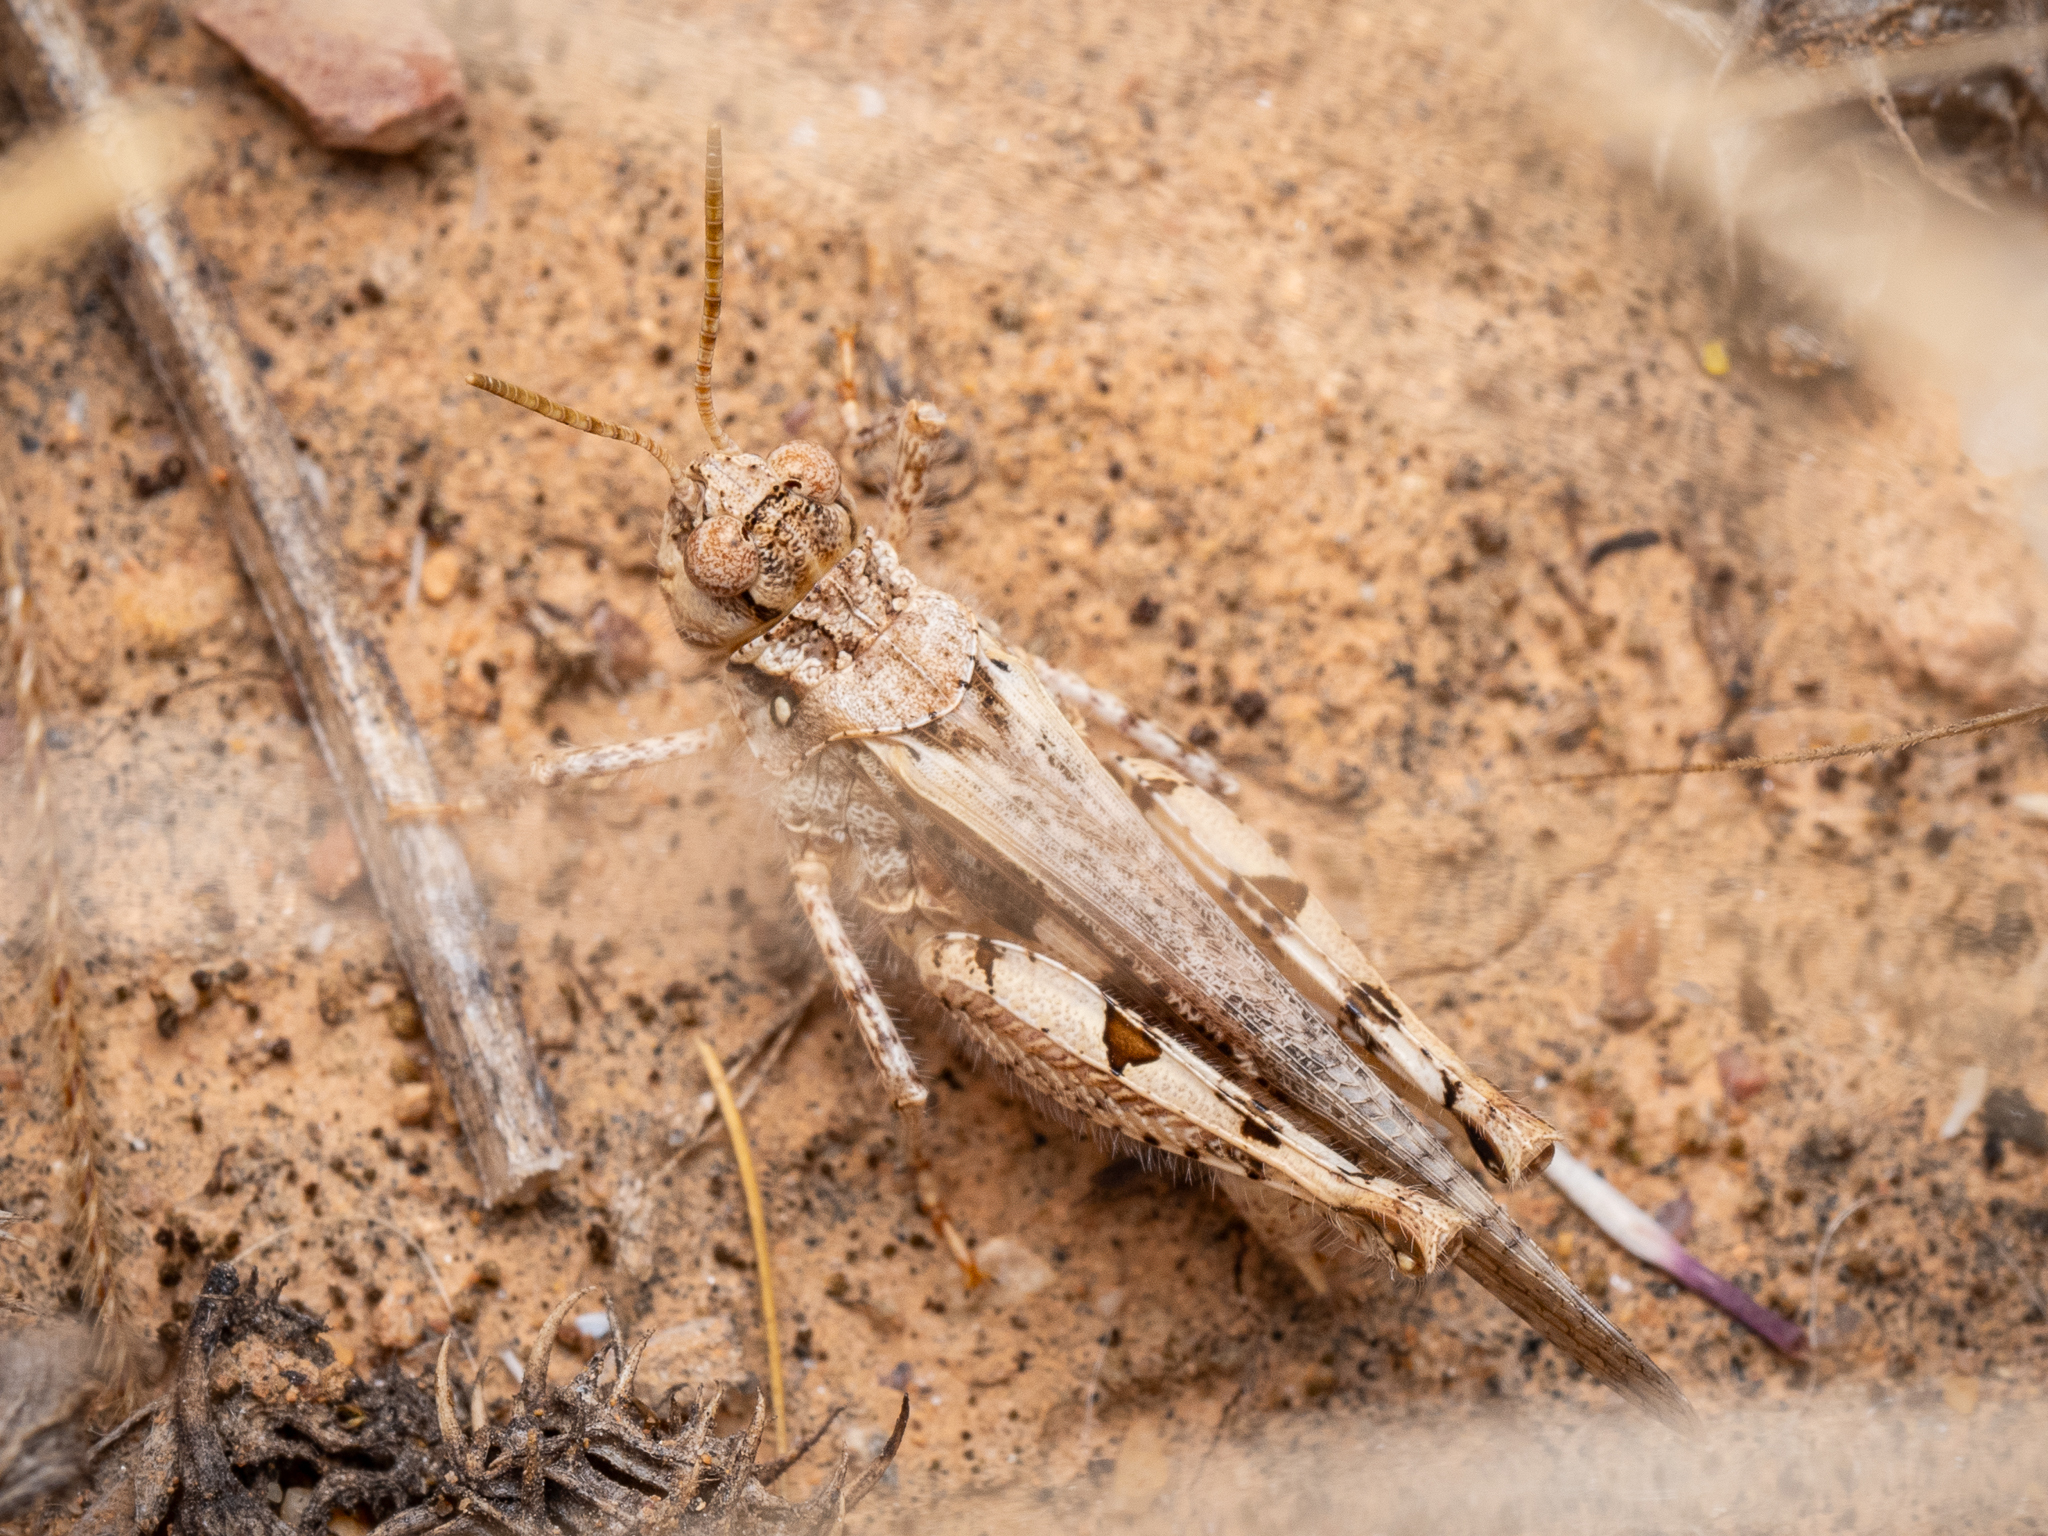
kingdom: Animalia
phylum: Arthropoda
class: Insecta
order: Orthoptera
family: Acrididae
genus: Acrotylus
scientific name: Acrotylus insubricus
